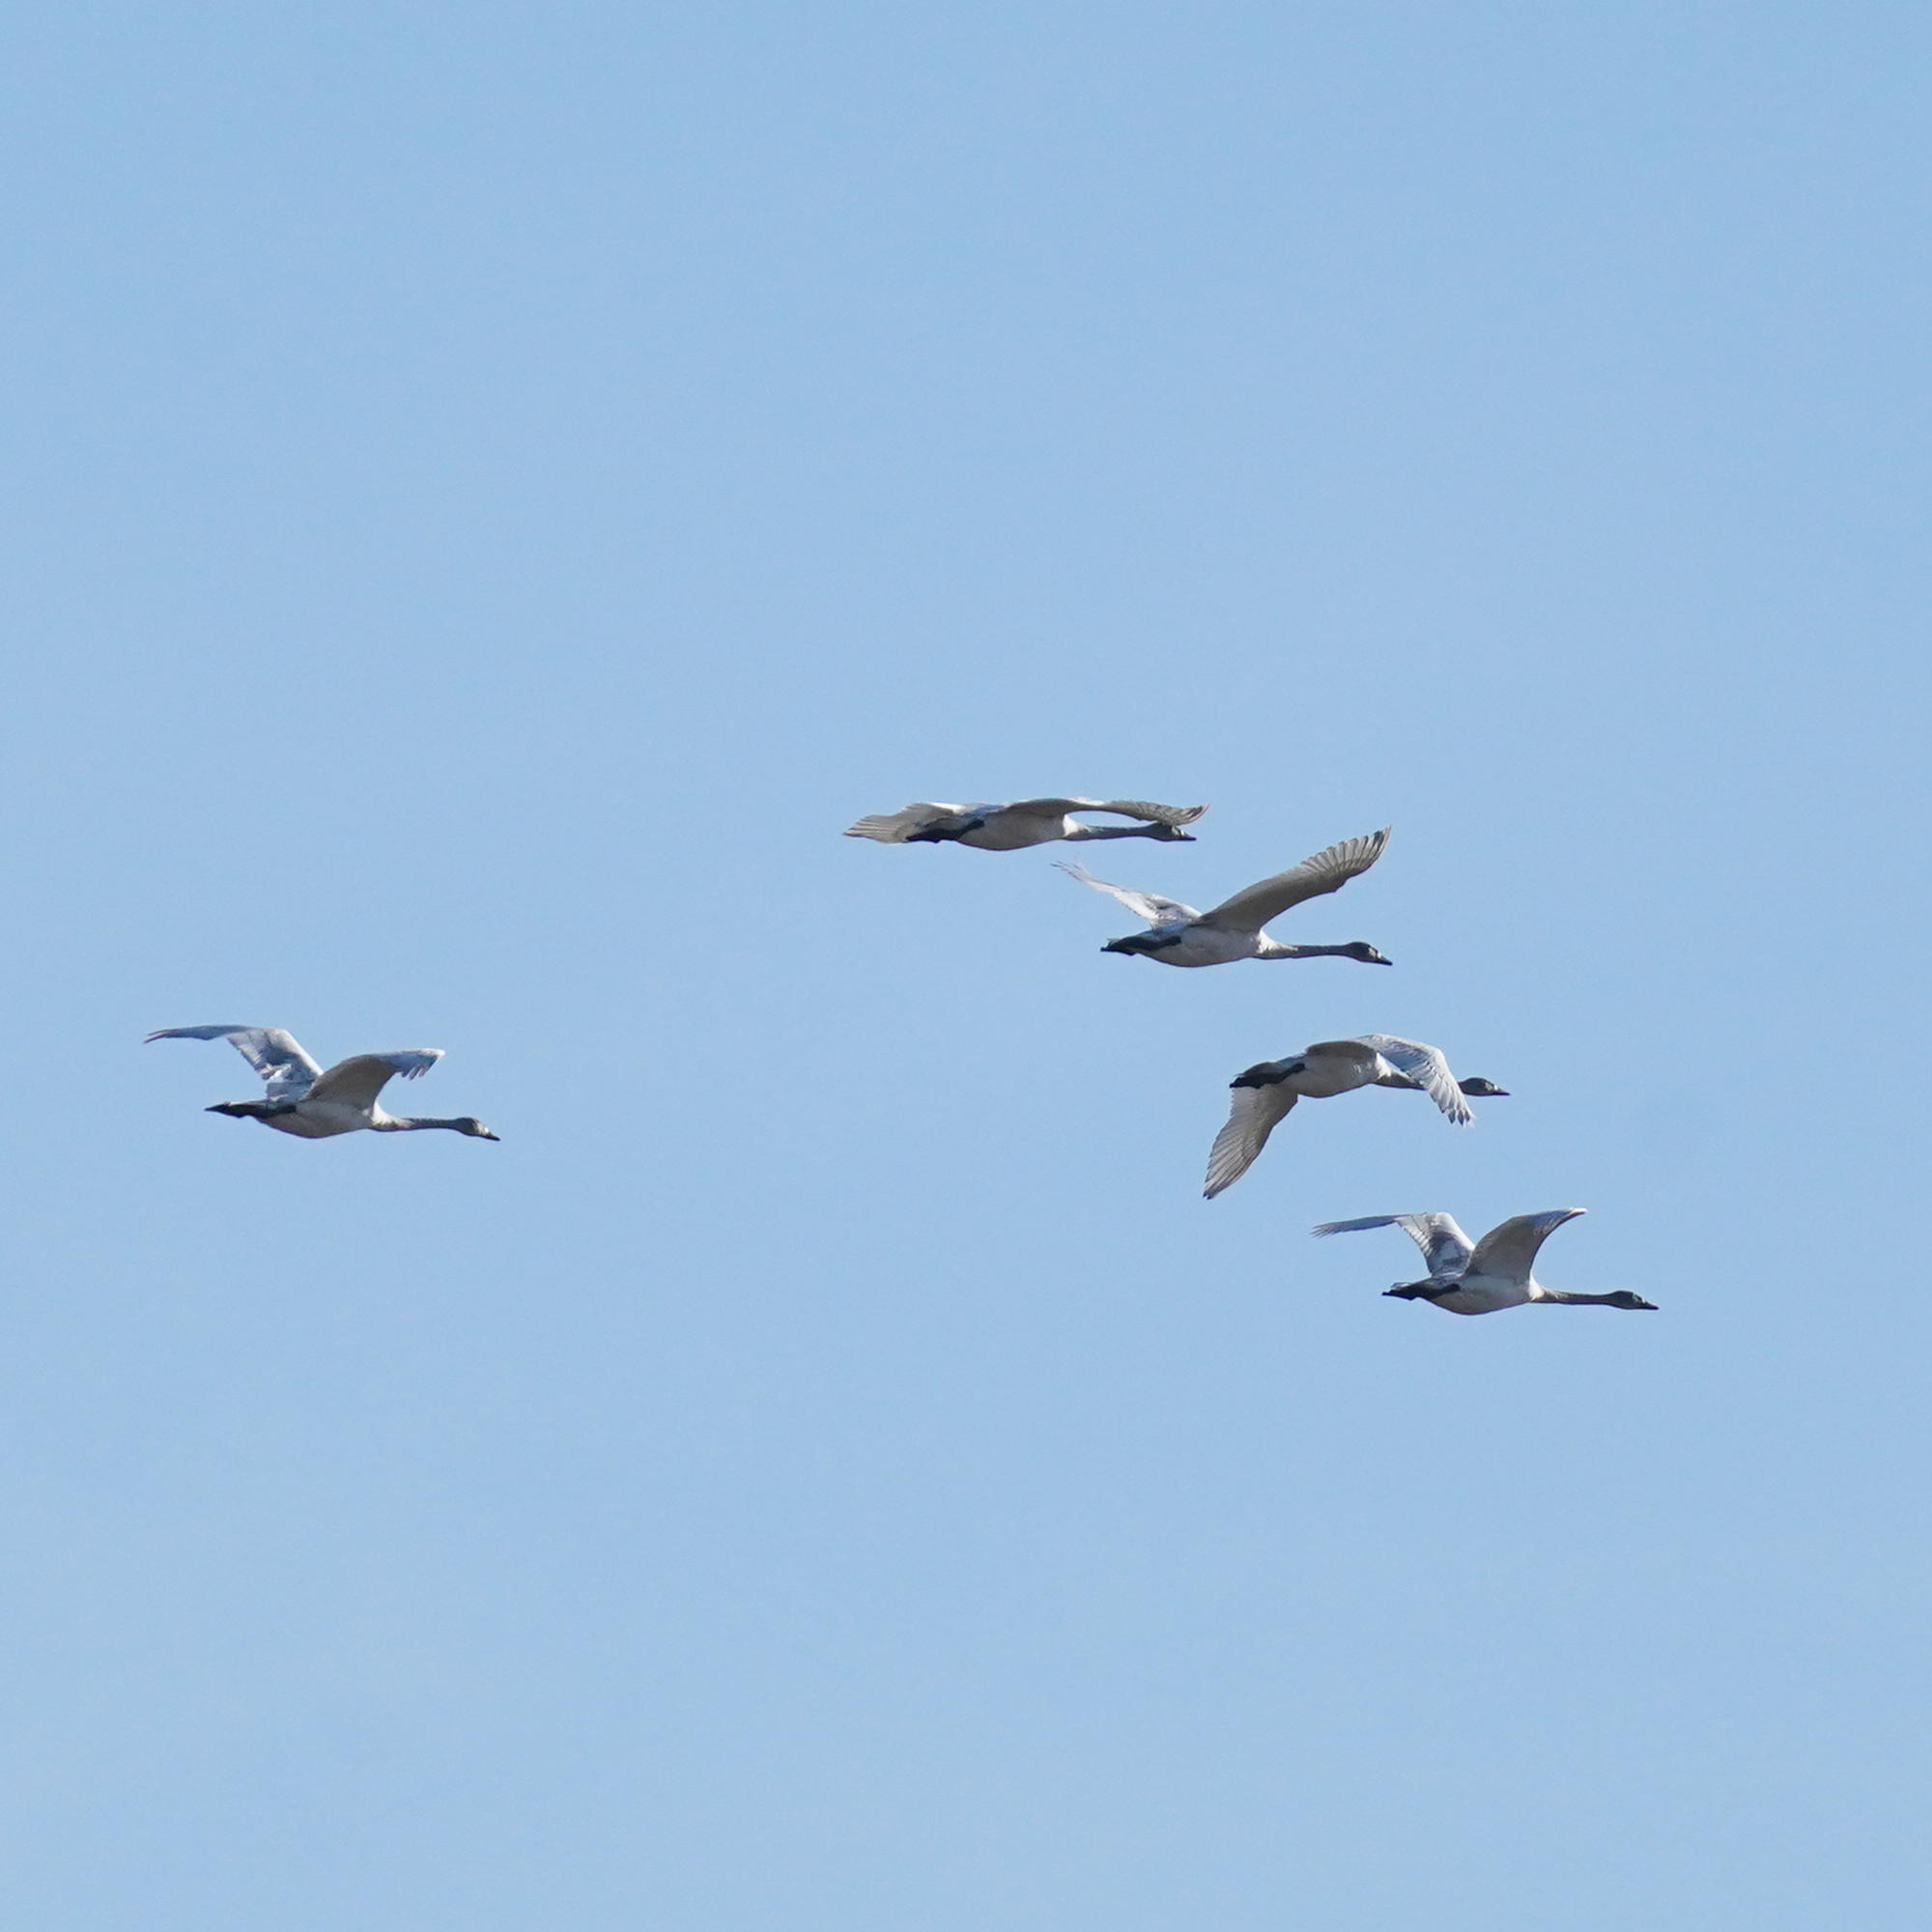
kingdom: Animalia
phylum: Chordata
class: Aves
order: Anseriformes
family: Anatidae
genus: Cygnus
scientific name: Cygnus buccinator
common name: Trumpeter swan
